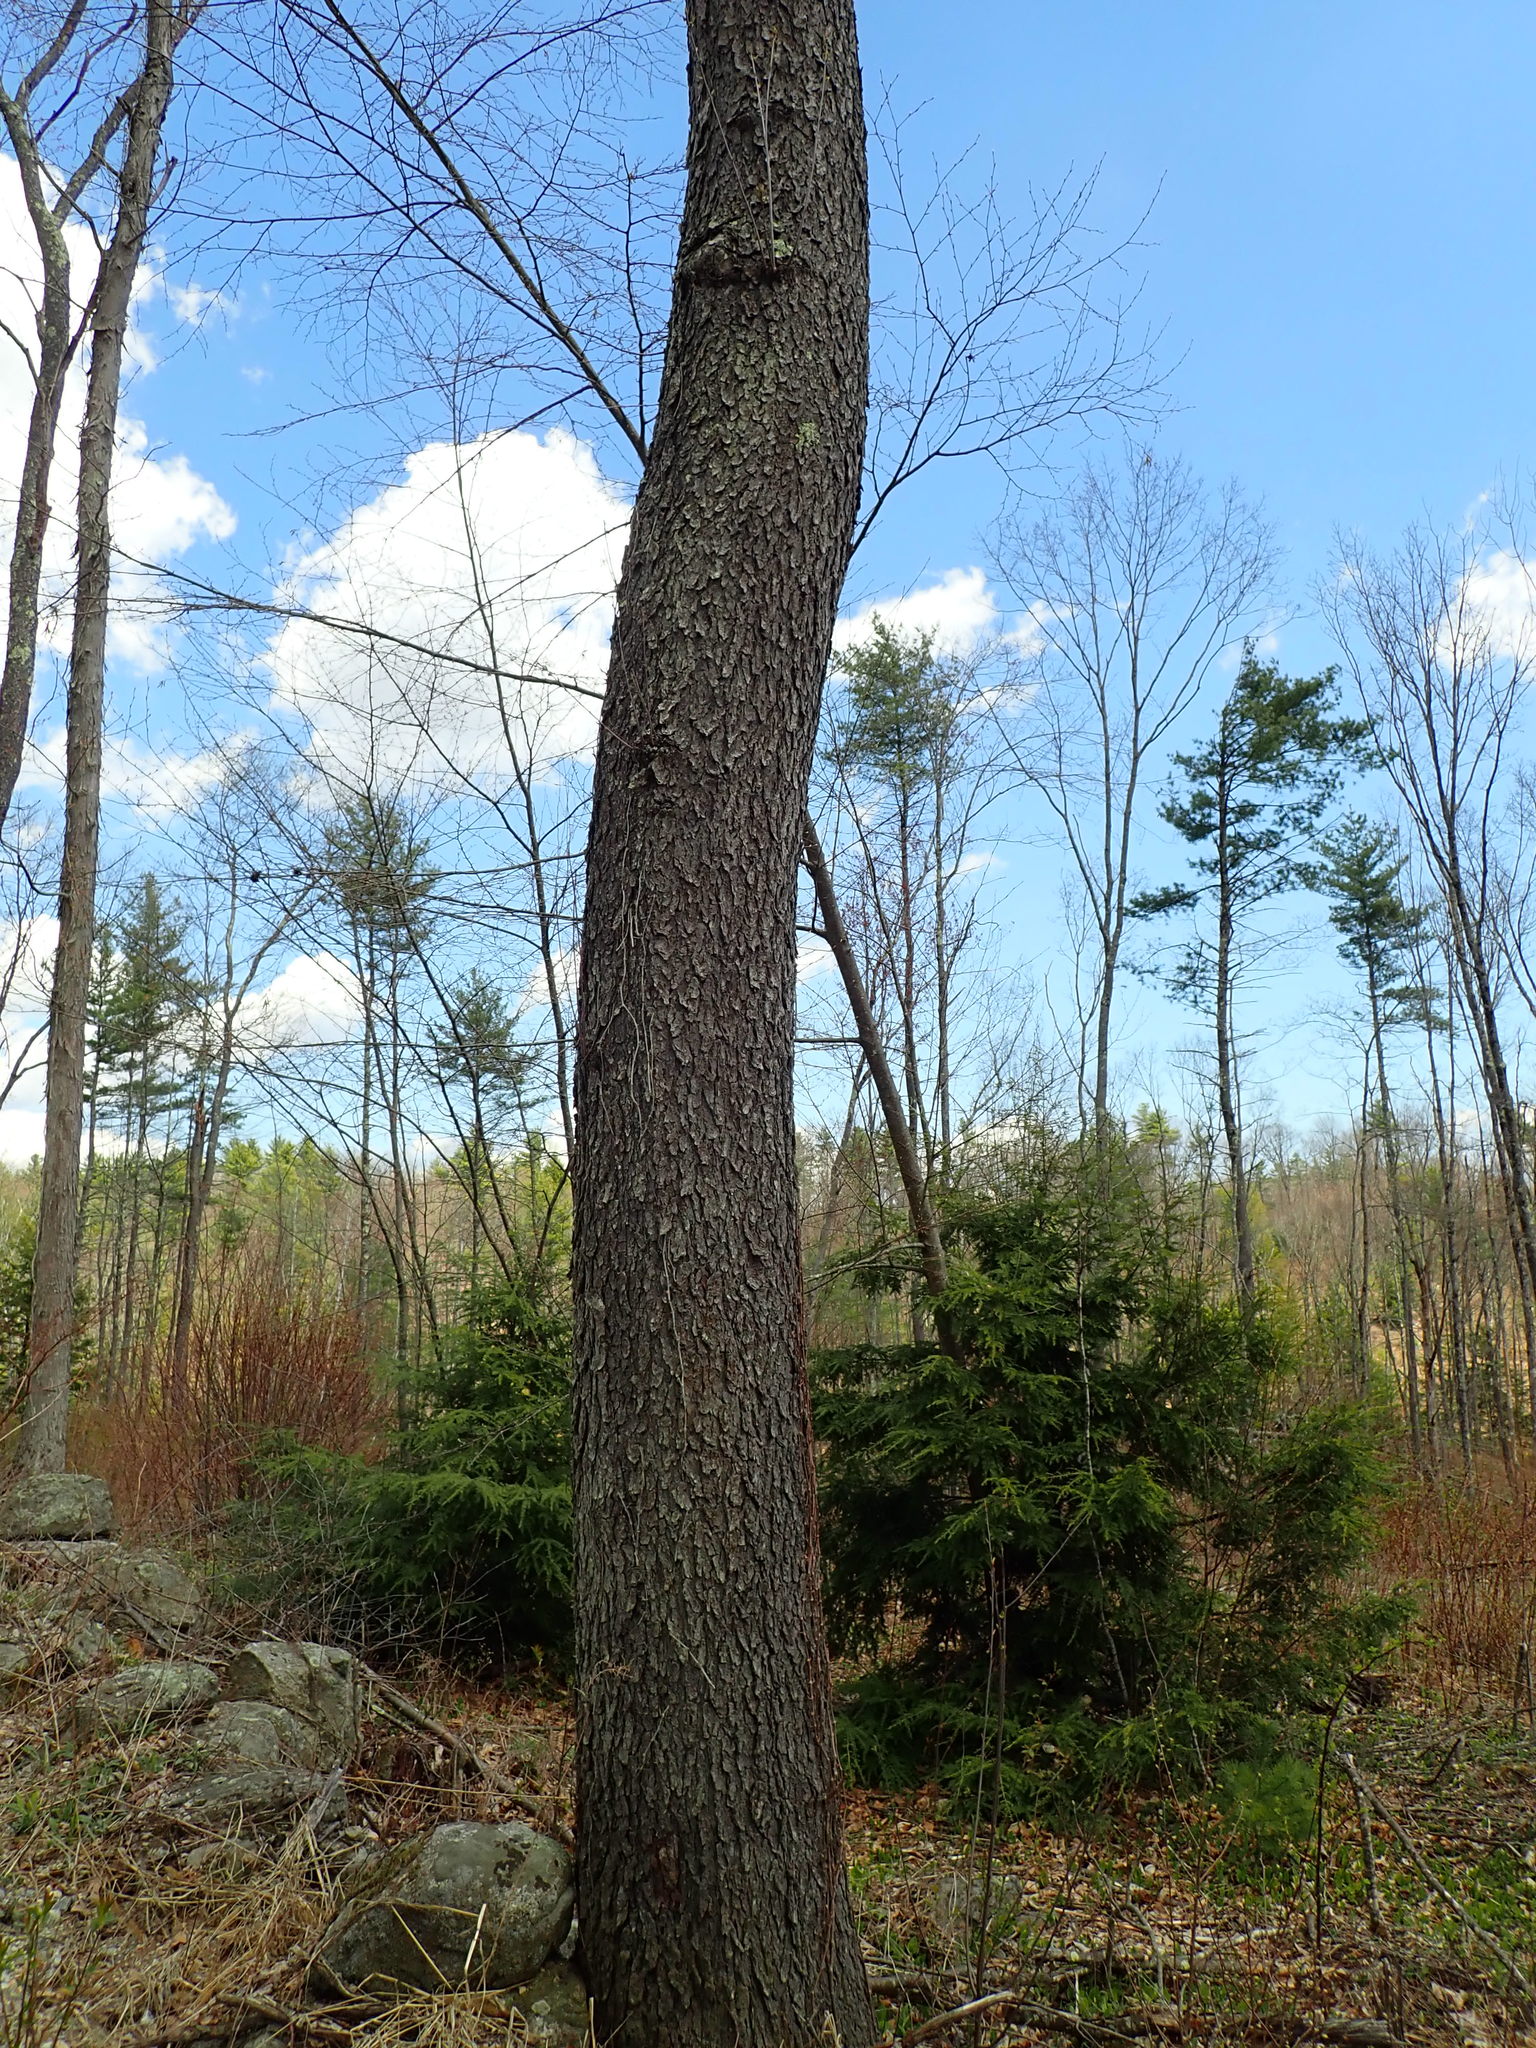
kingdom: Plantae
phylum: Tracheophyta
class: Magnoliopsida
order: Rosales
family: Rosaceae
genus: Prunus
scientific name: Prunus serotina
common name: Black cherry
